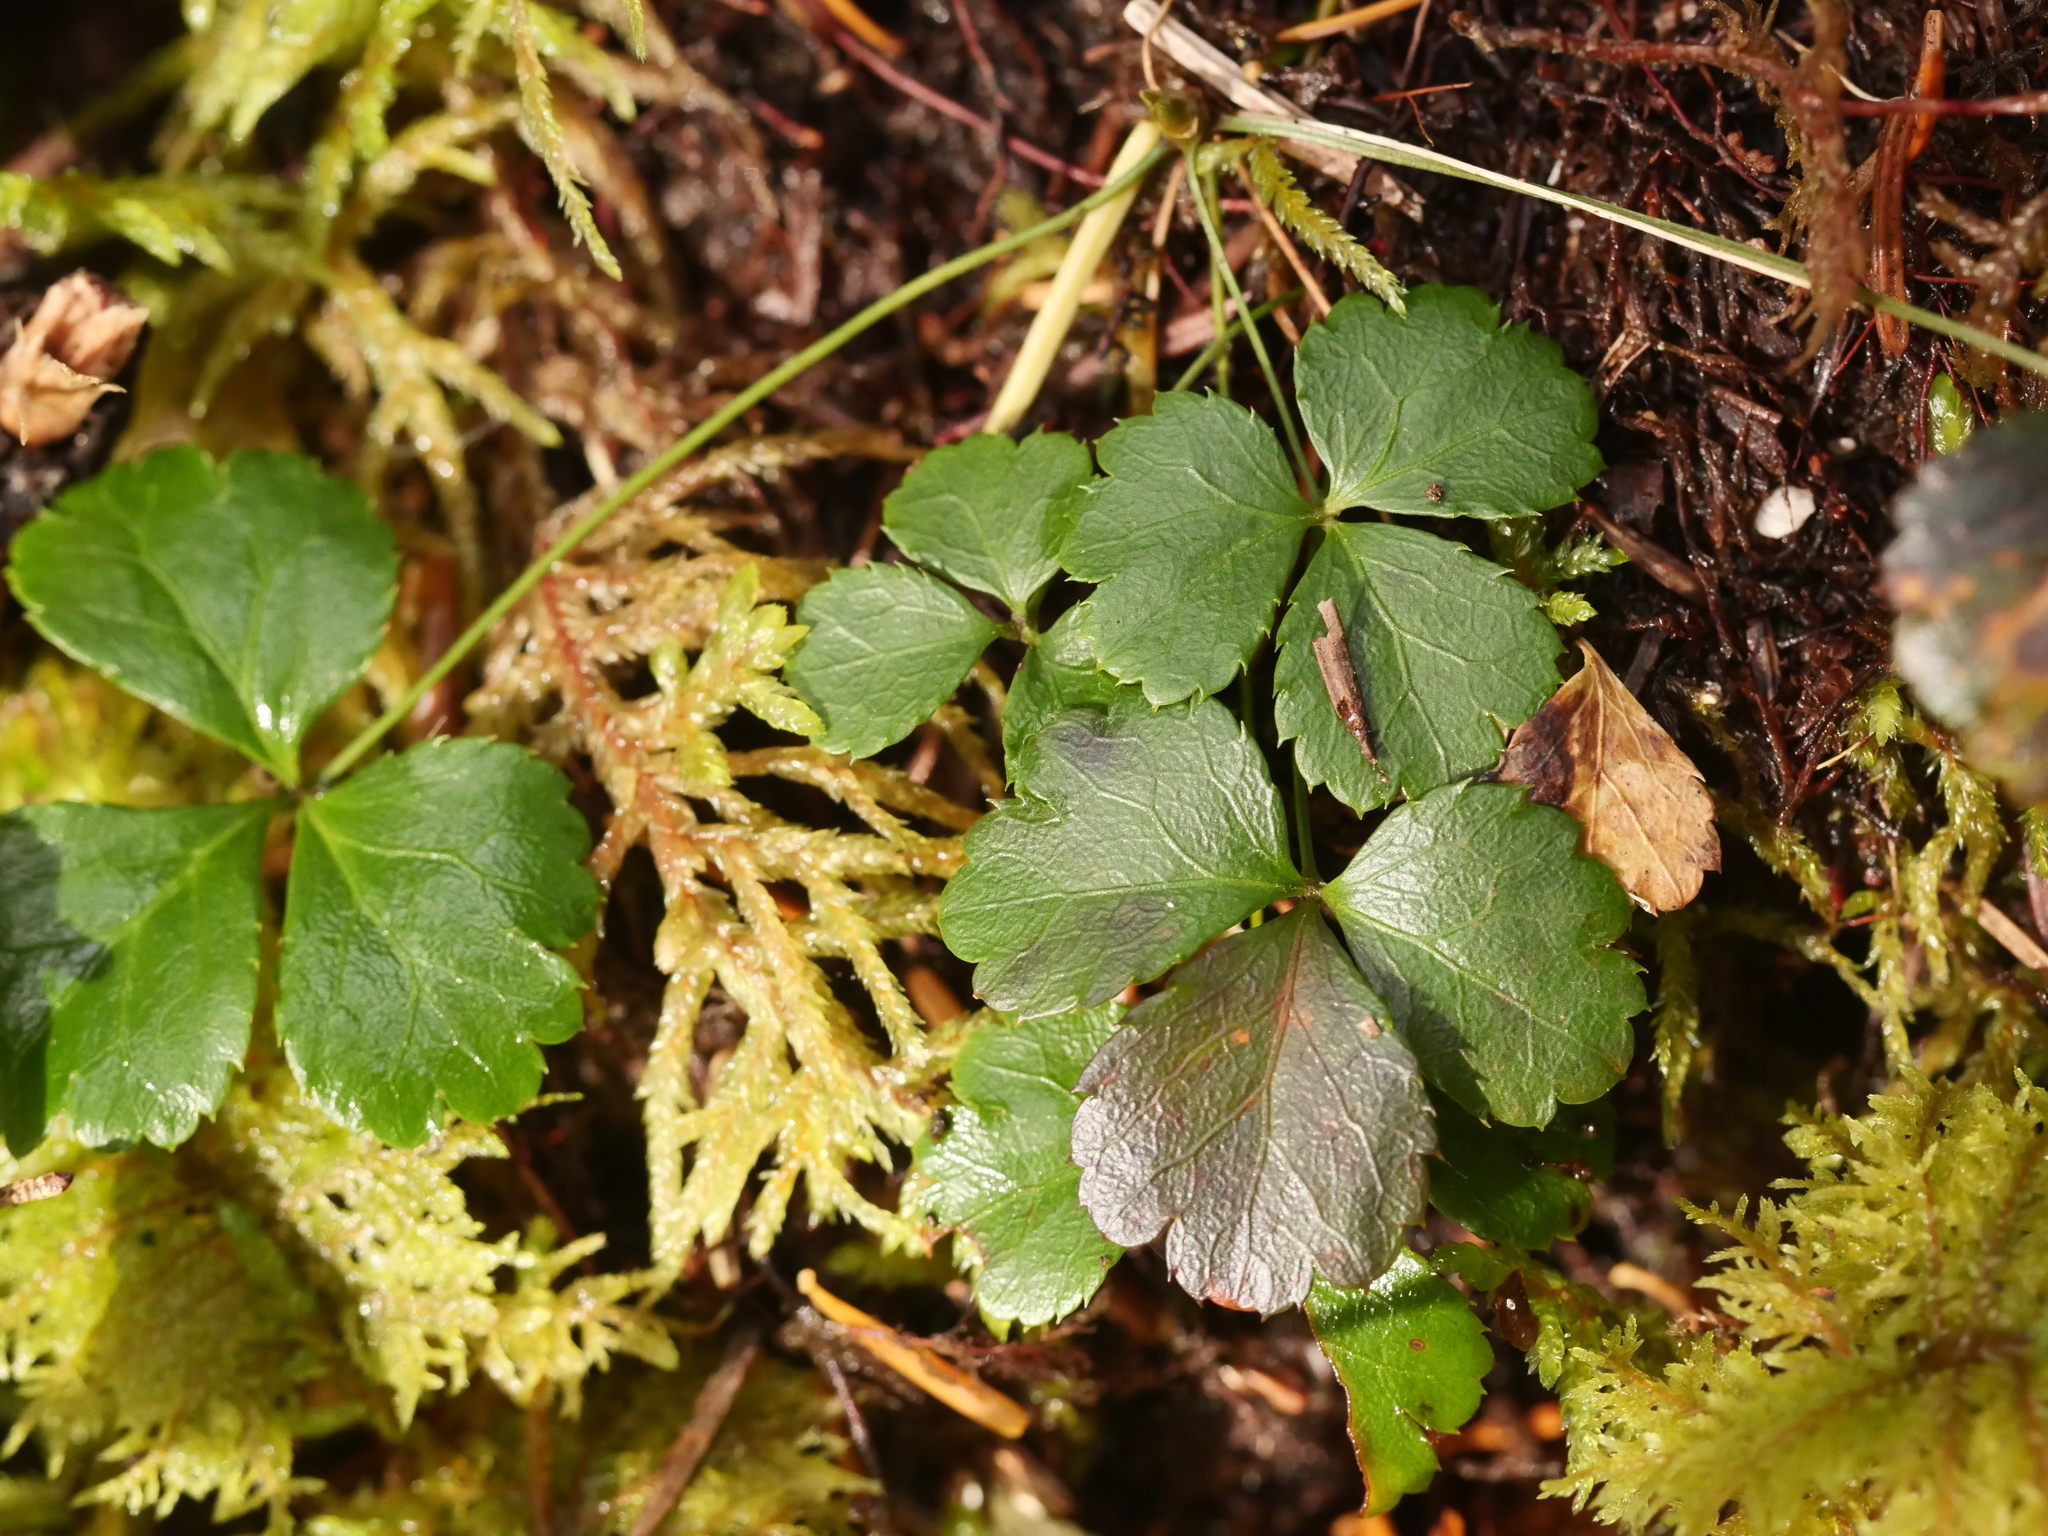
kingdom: Plantae
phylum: Tracheophyta
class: Magnoliopsida
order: Ranunculales
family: Ranunculaceae
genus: Coptis
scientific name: Coptis trifolia
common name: Canker-root
